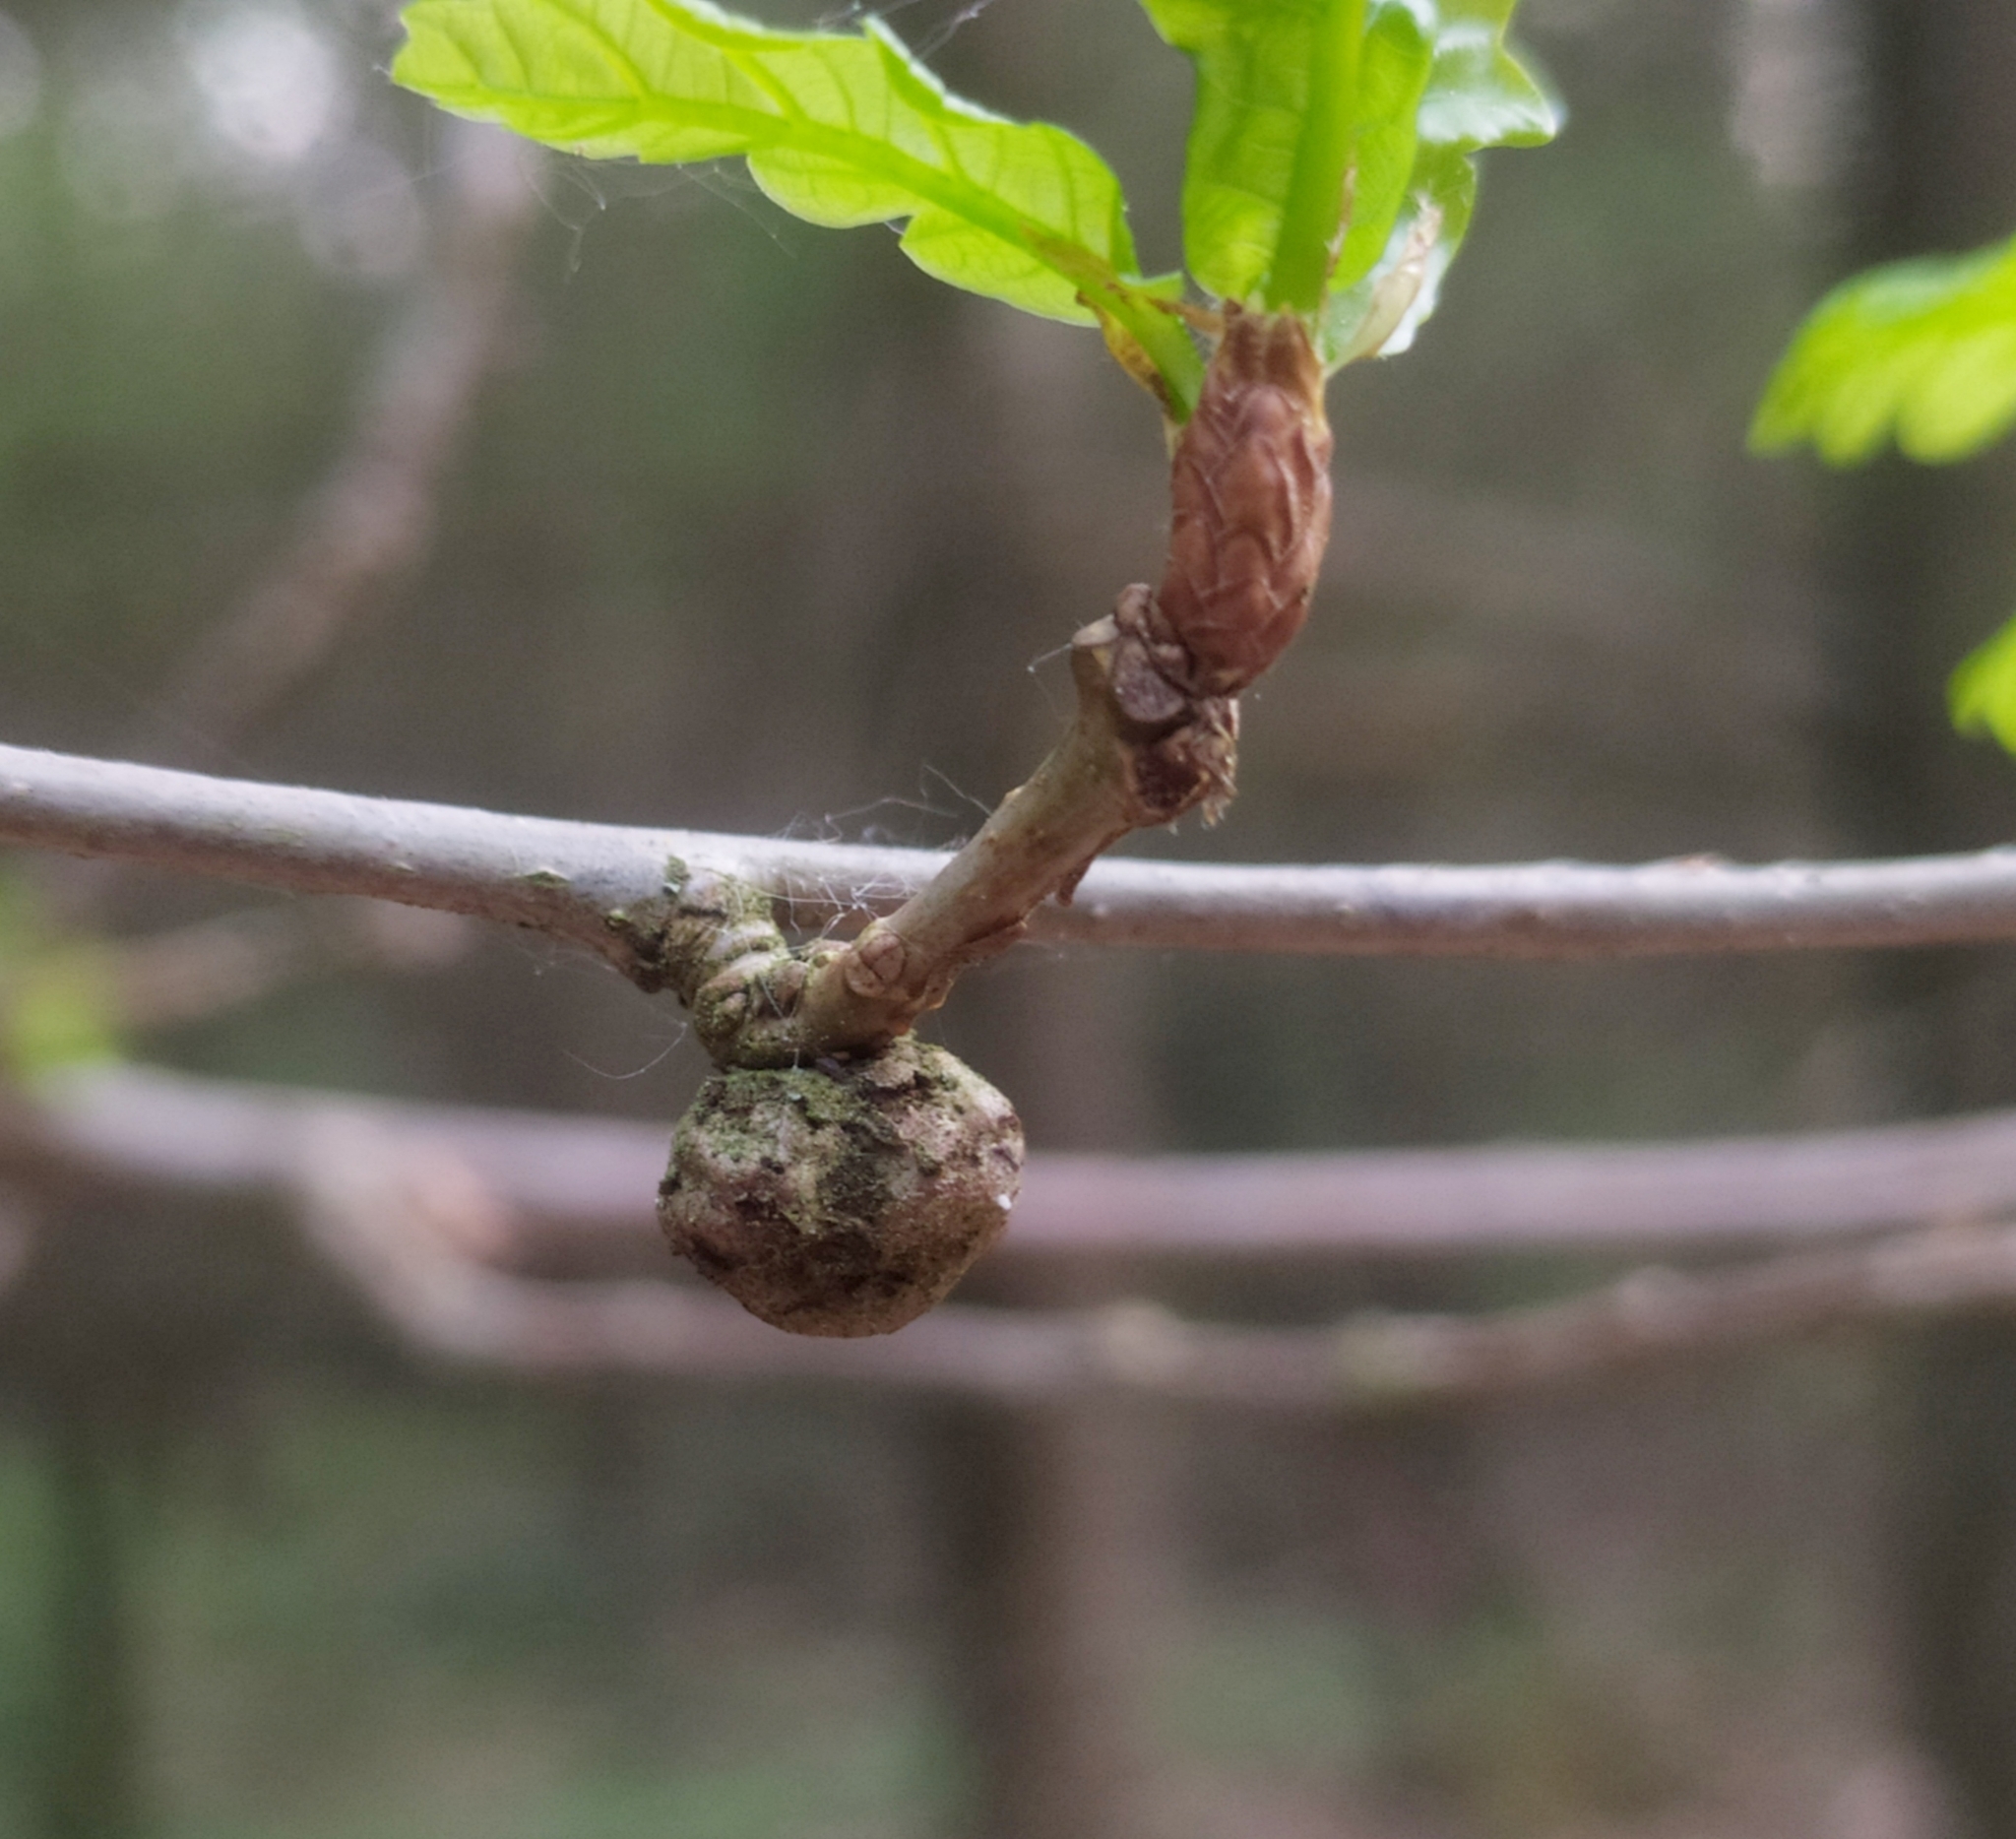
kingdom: Animalia
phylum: Arthropoda
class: Insecta
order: Hymenoptera
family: Cynipidae
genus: Andricus
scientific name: Andricus lignicolus
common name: Cola-nut gall
